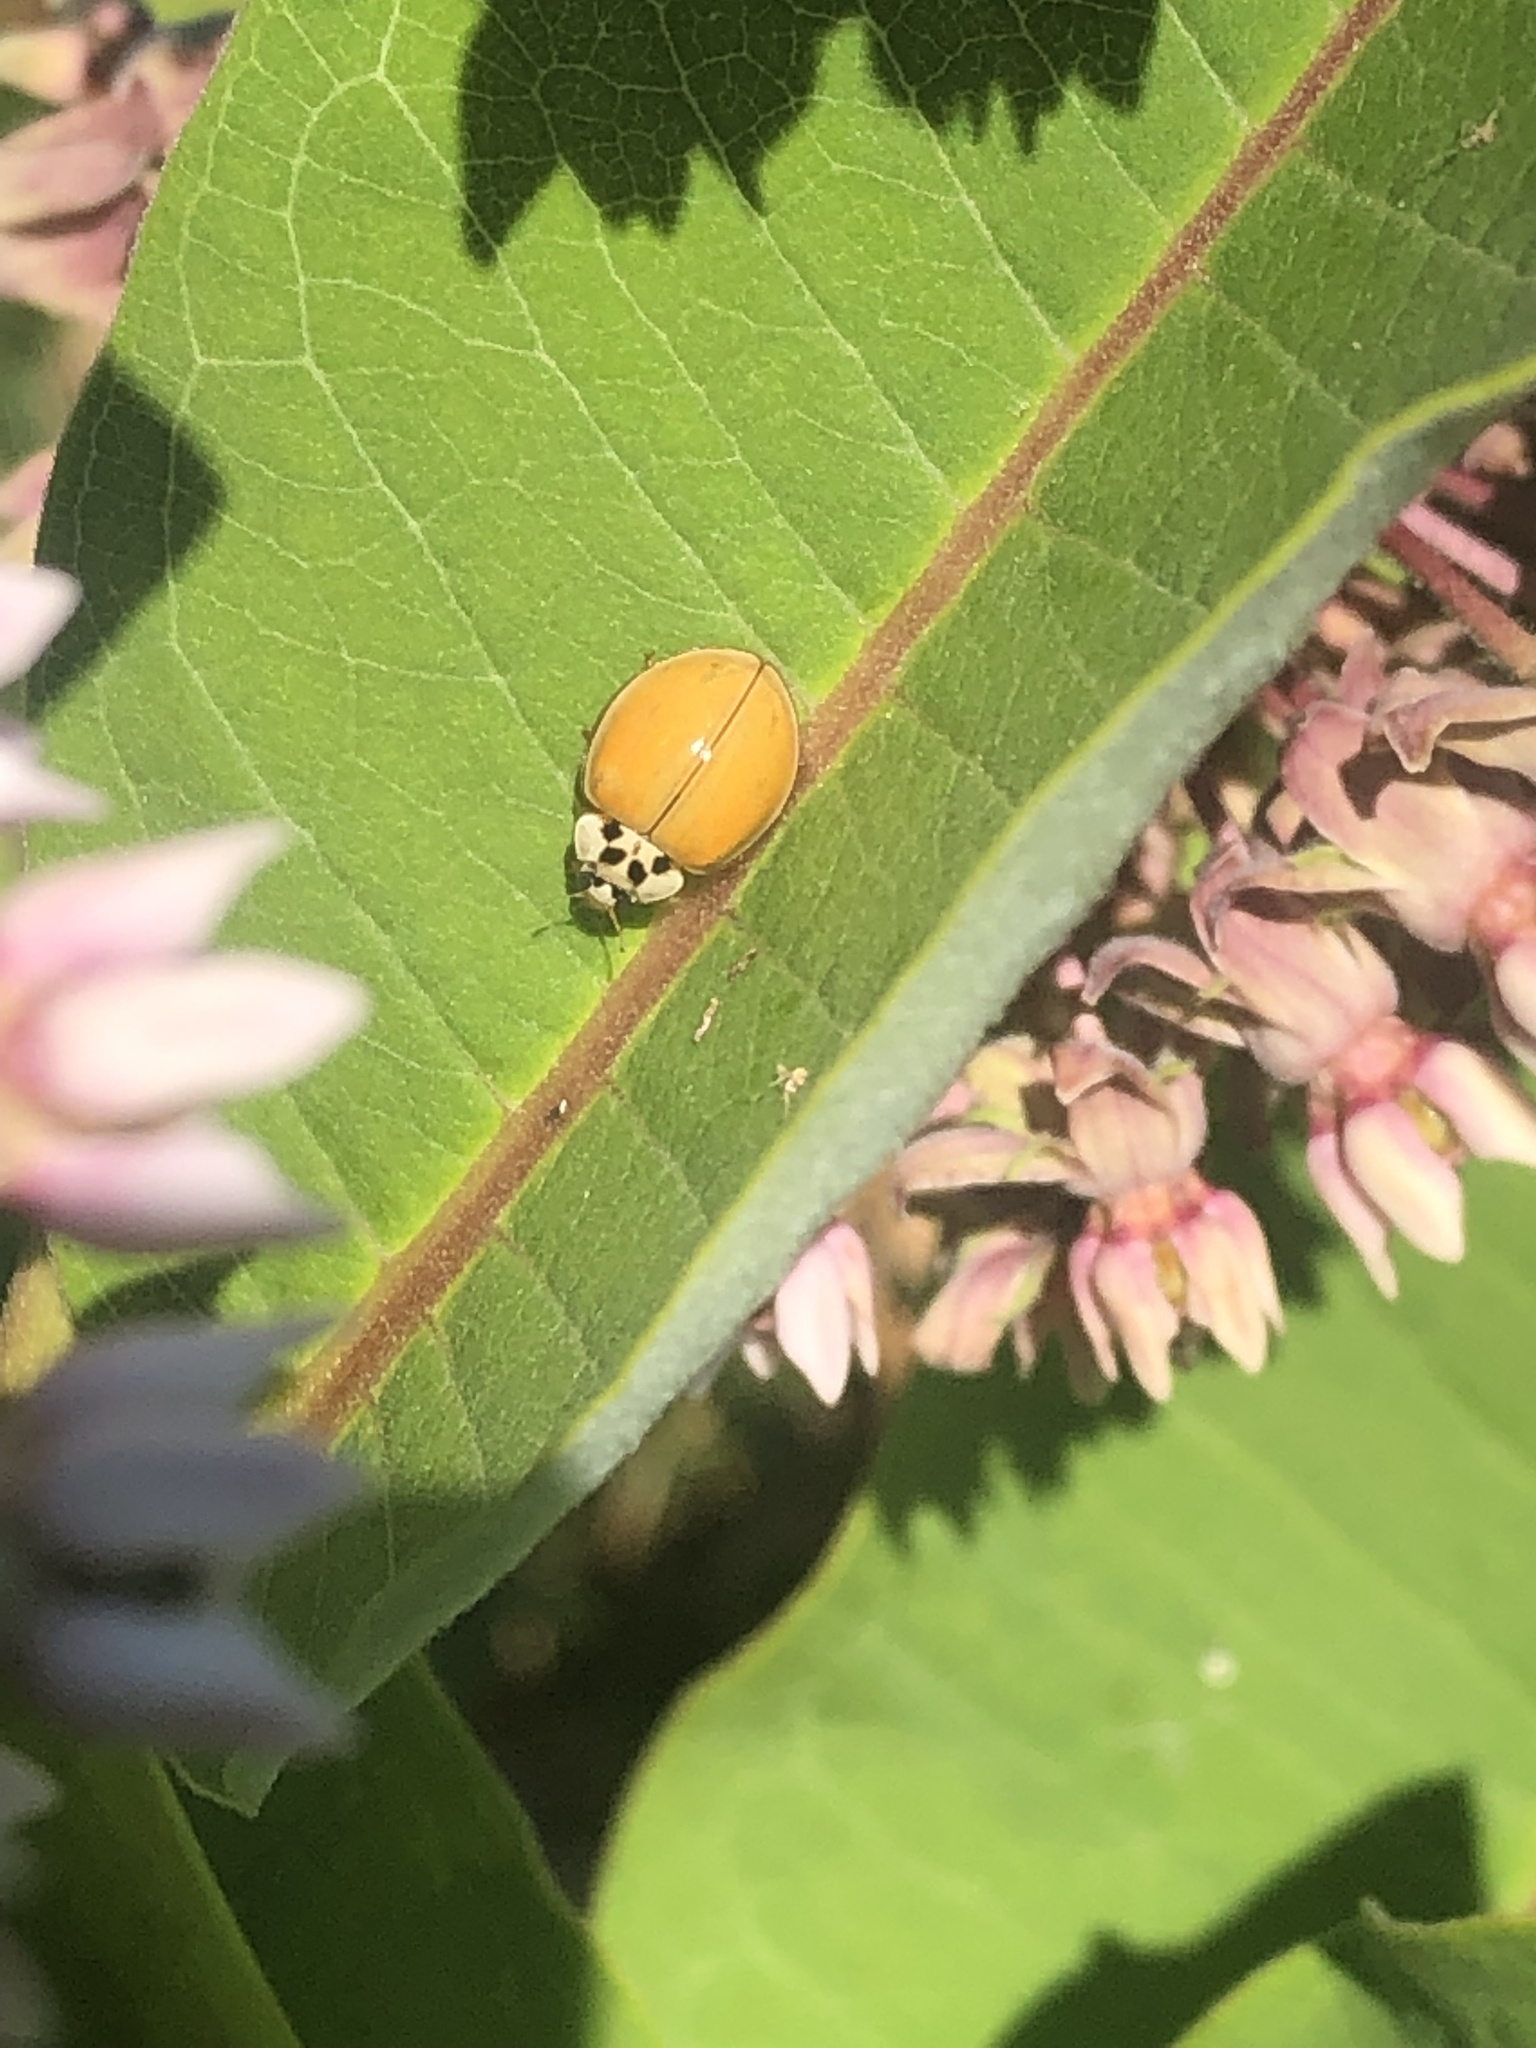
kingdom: Animalia
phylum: Arthropoda
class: Insecta
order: Coleoptera
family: Coccinellidae
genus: Harmonia
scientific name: Harmonia axyridis
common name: Harlequin ladybird
